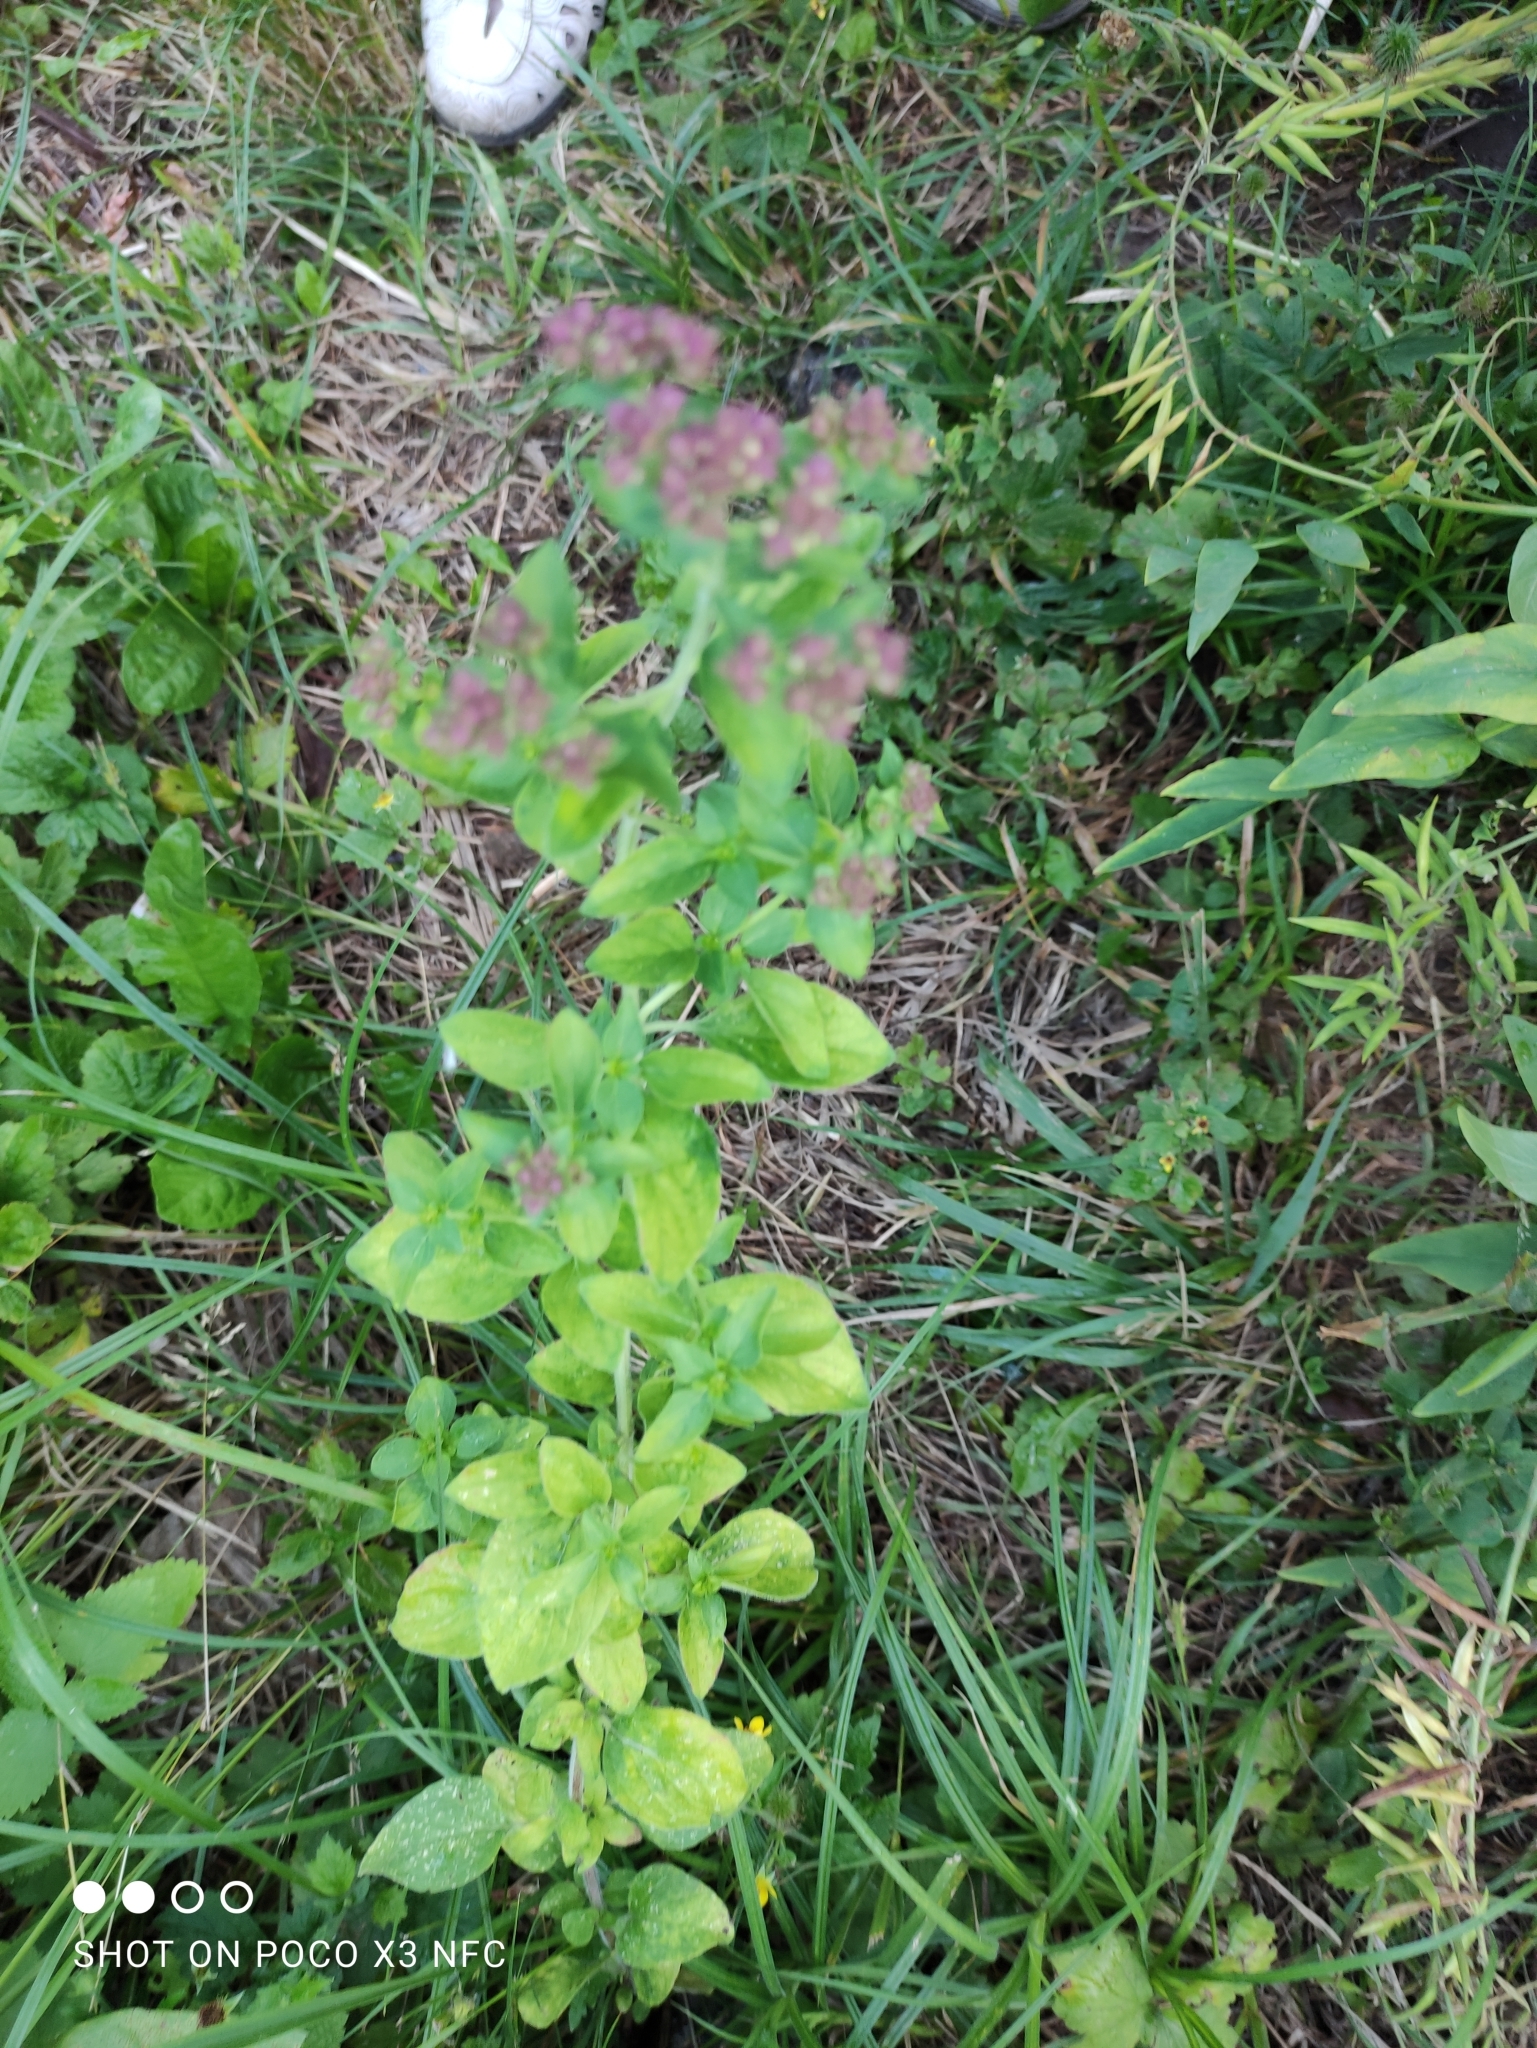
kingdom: Plantae
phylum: Tracheophyta
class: Magnoliopsida
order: Lamiales
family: Lamiaceae
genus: Origanum
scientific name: Origanum vulgare
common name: Wild marjoram
